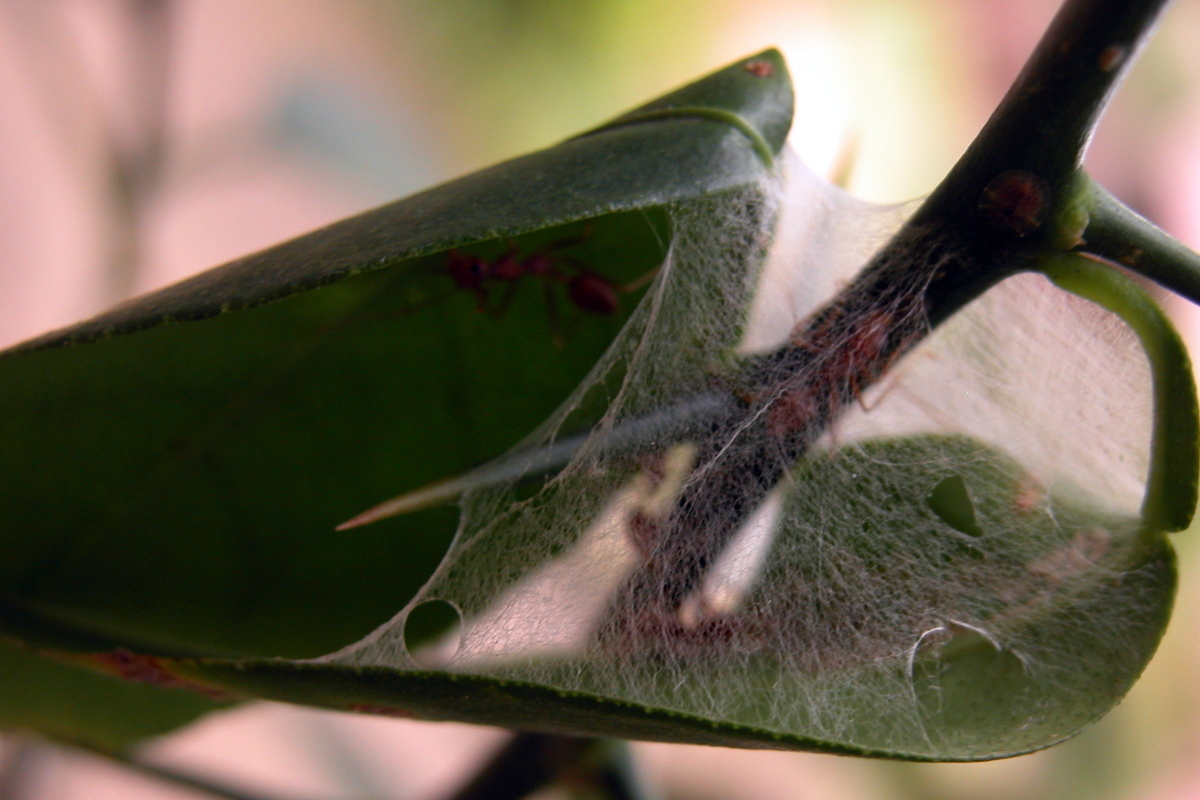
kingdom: Animalia
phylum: Arthropoda
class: Insecta
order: Hymenoptera
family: Formicidae
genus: Oecophylla
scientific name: Oecophylla smaragdina
